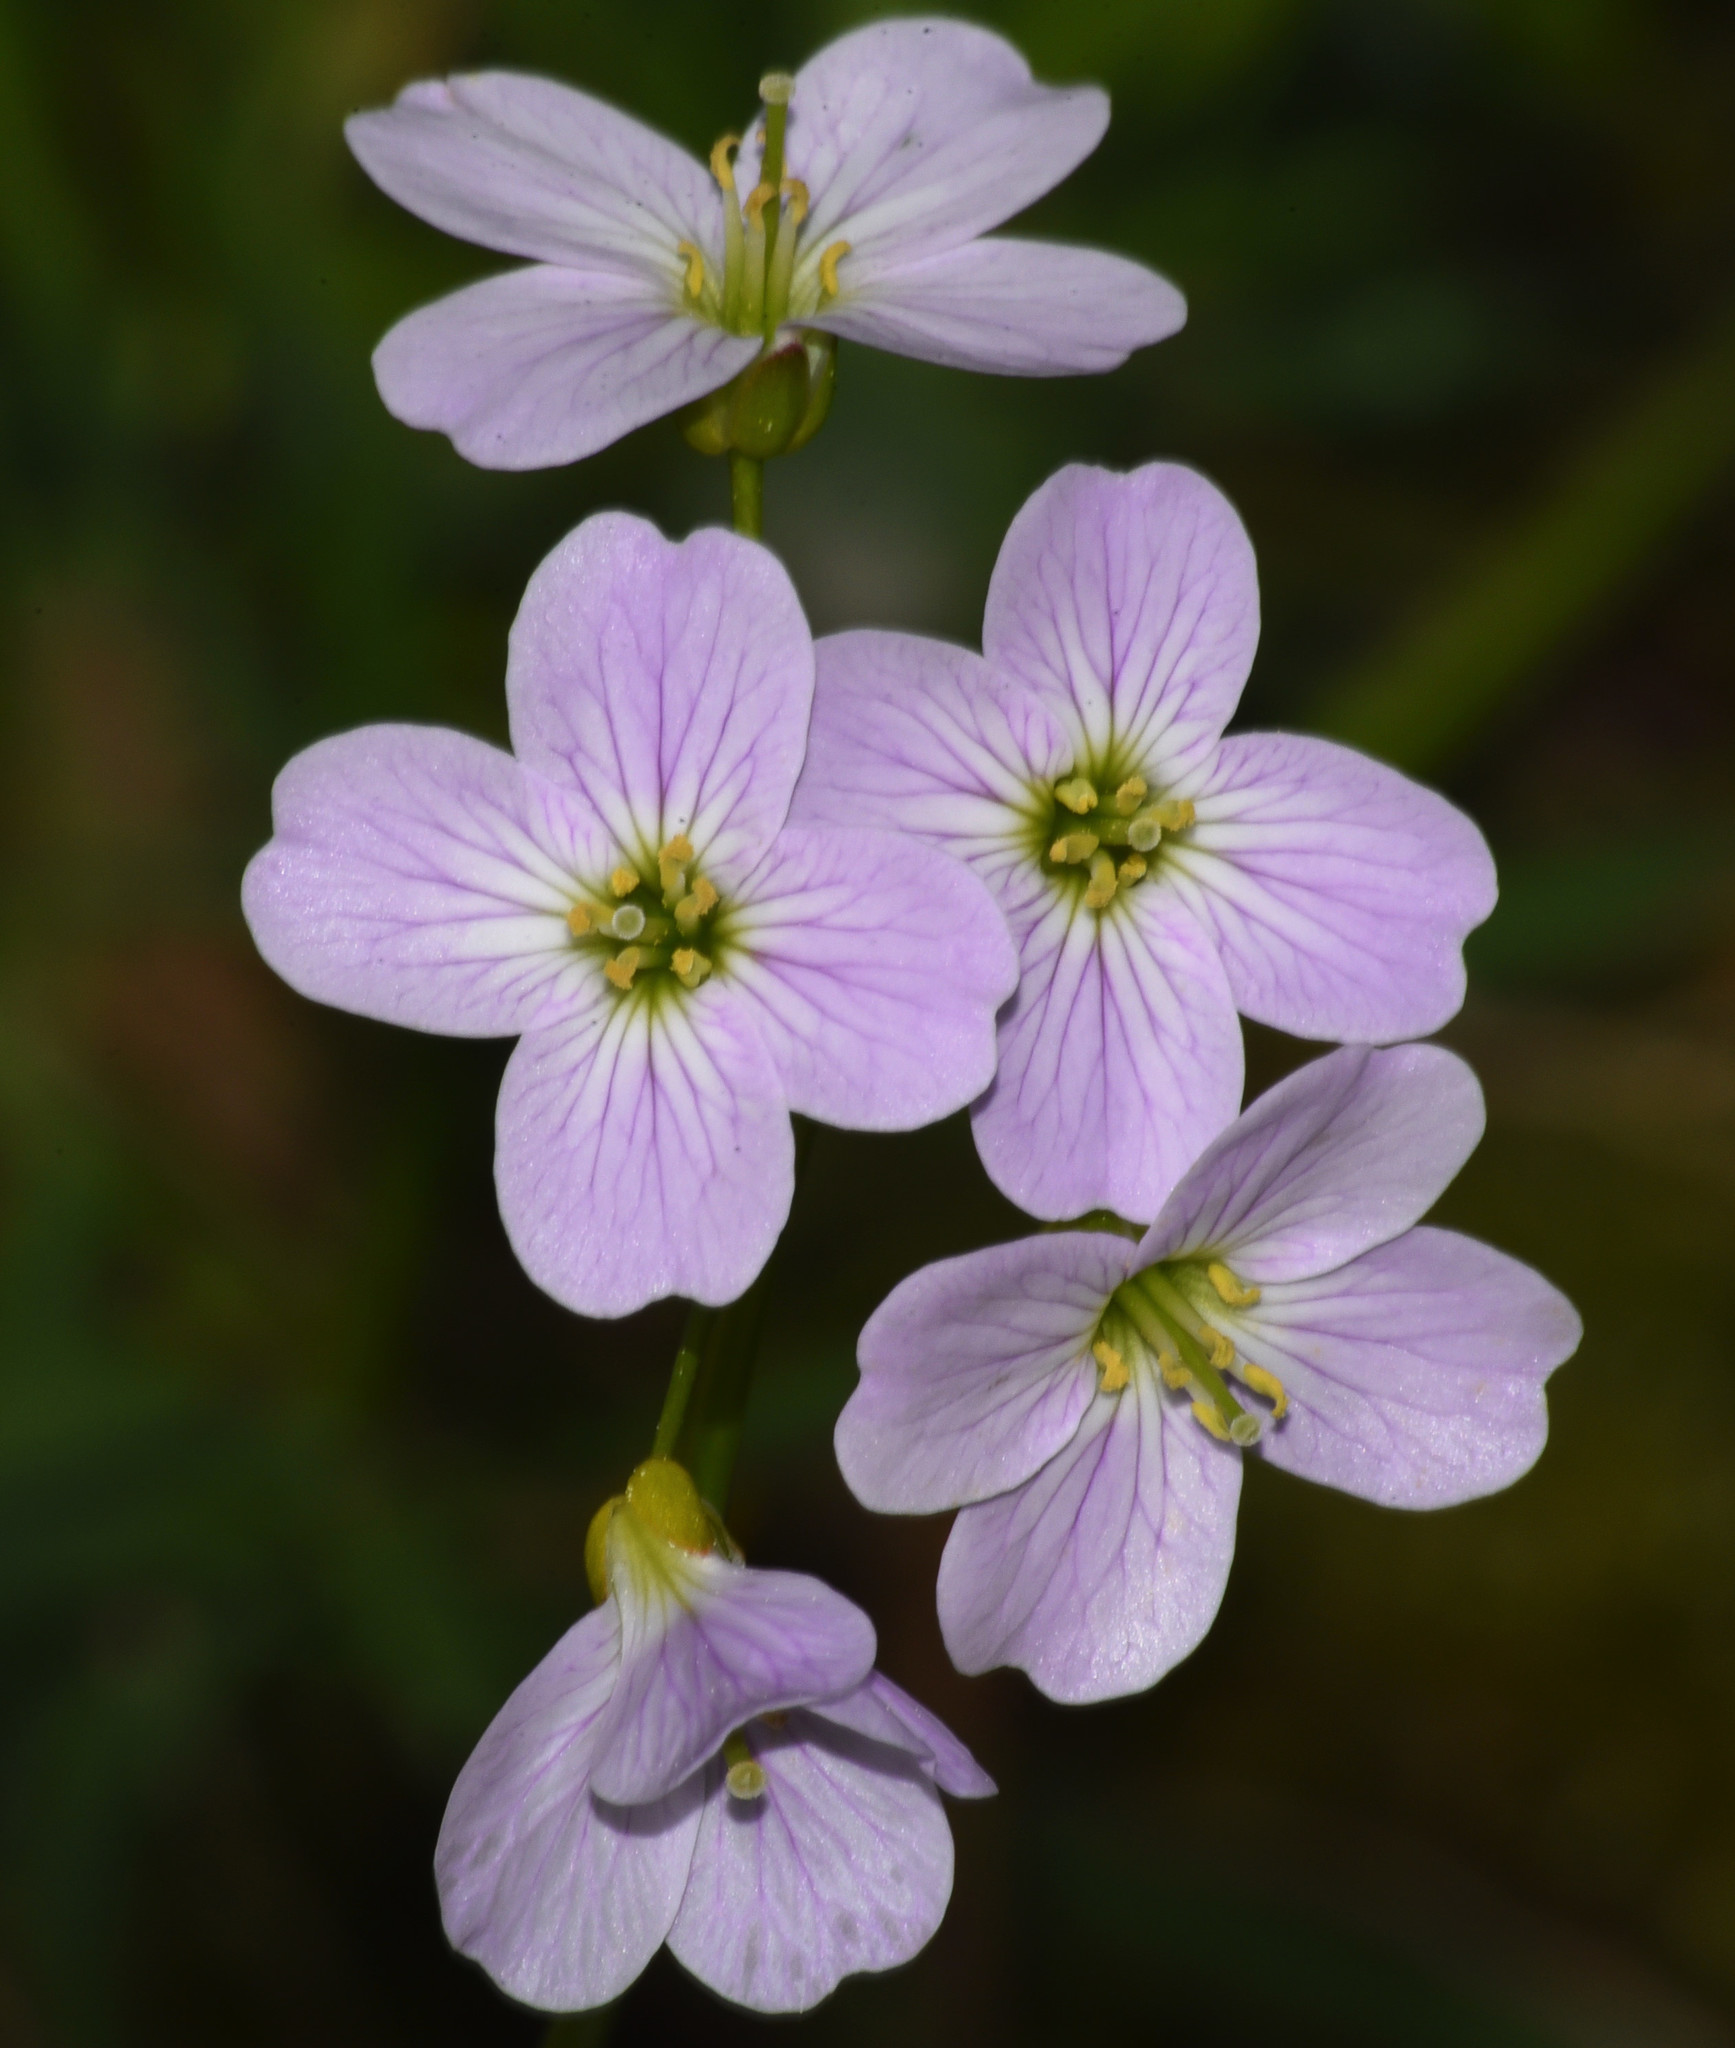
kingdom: Plantae
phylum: Tracheophyta
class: Magnoliopsida
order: Brassicales
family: Brassicaceae
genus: Cardamine
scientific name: Cardamine pratensis
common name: Cuckoo flower
